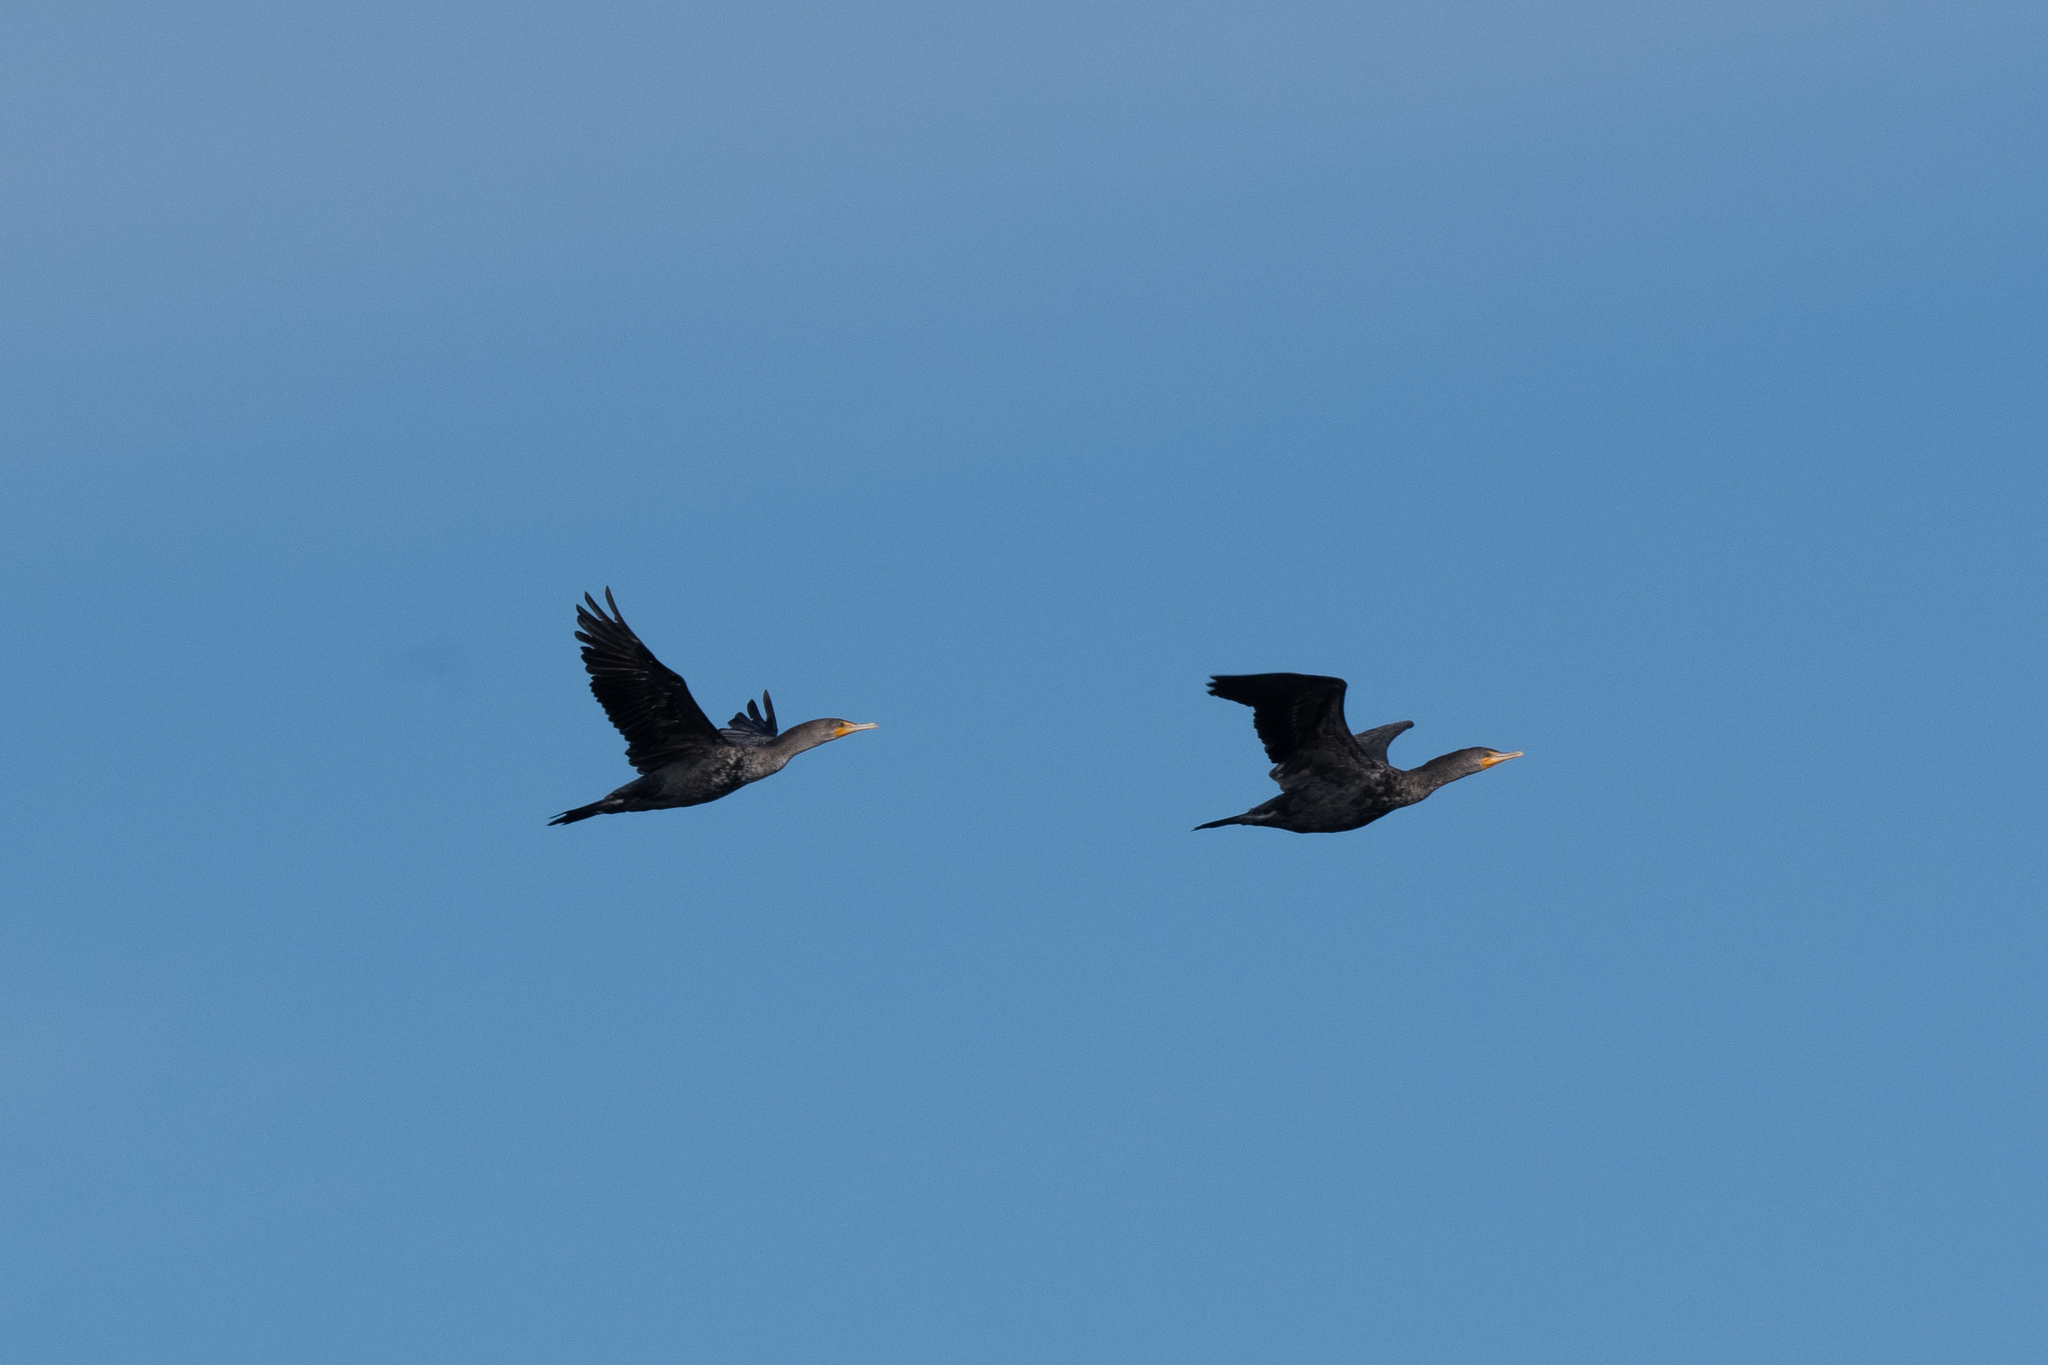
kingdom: Animalia
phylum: Chordata
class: Aves
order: Suliformes
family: Phalacrocoracidae
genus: Phalacrocorax
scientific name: Phalacrocorax auritus
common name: Double-crested cormorant
